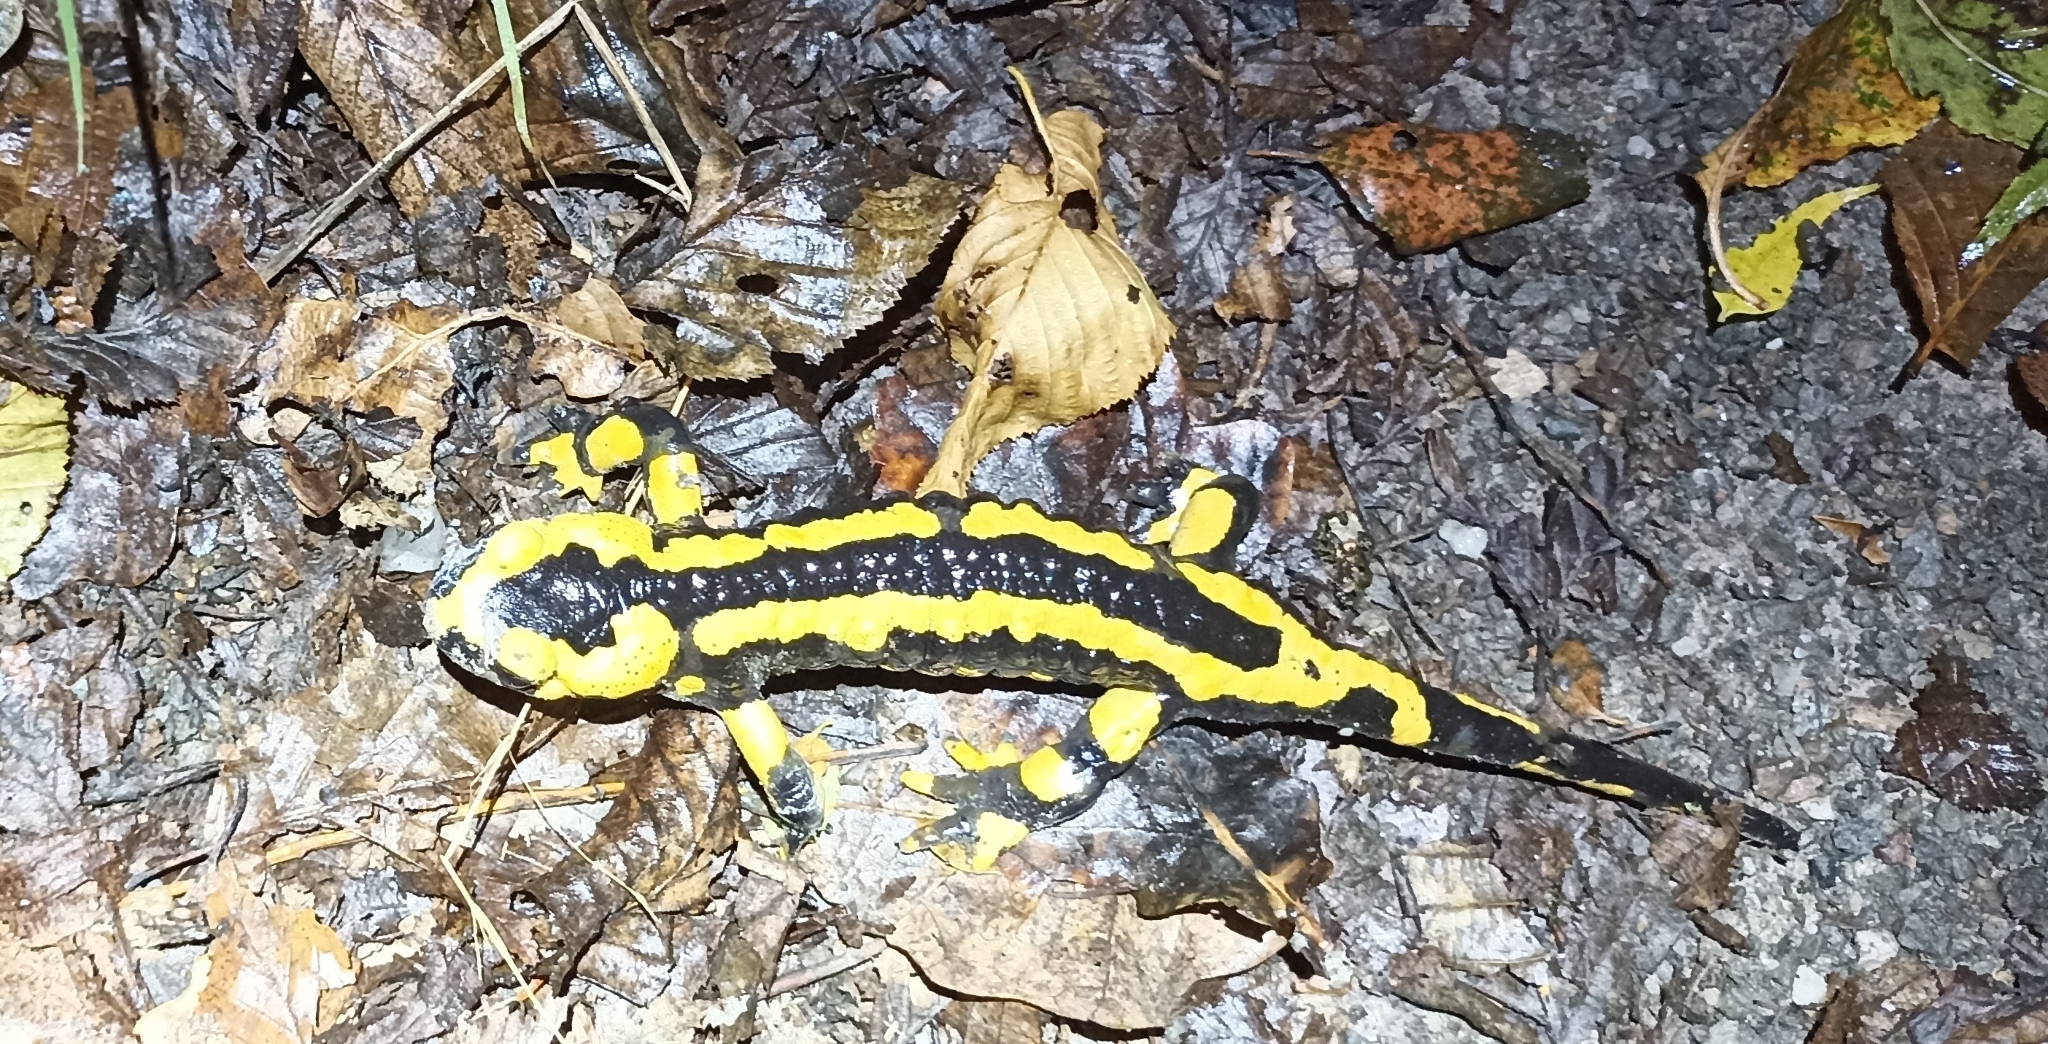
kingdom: Animalia
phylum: Chordata
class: Amphibia
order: Caudata
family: Salamandridae
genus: Salamandra
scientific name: Salamandra salamandra
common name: Fire salamander
